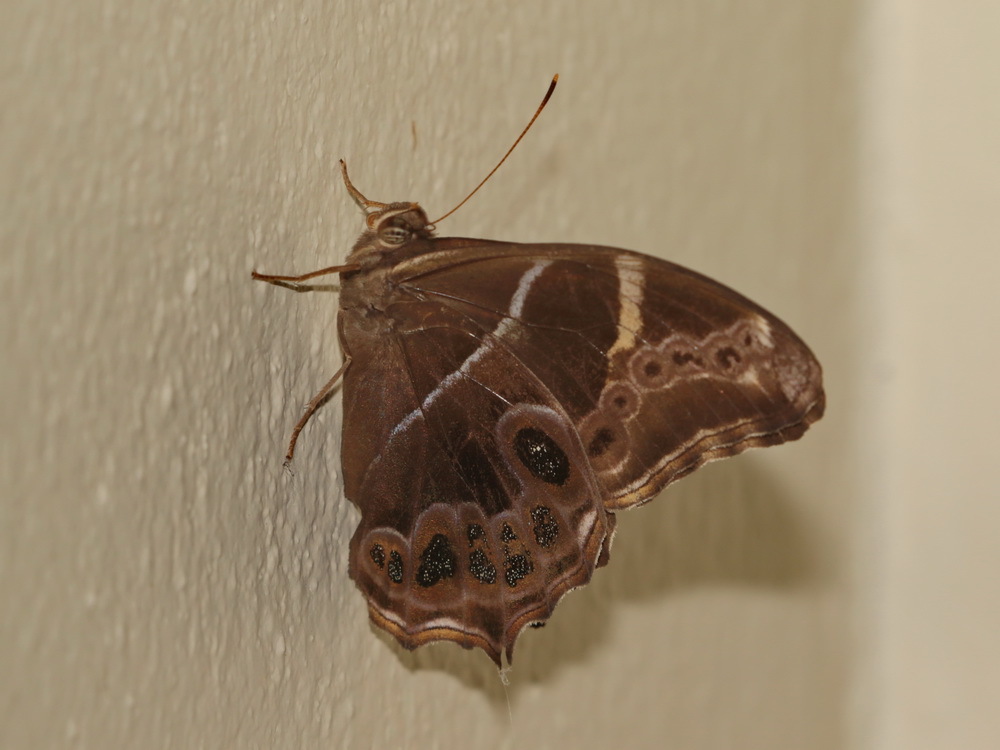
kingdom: Animalia
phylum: Arthropoda
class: Insecta
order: Lepidoptera
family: Nymphalidae
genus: Lethe
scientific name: Lethe europa
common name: Bamboo treebrown
